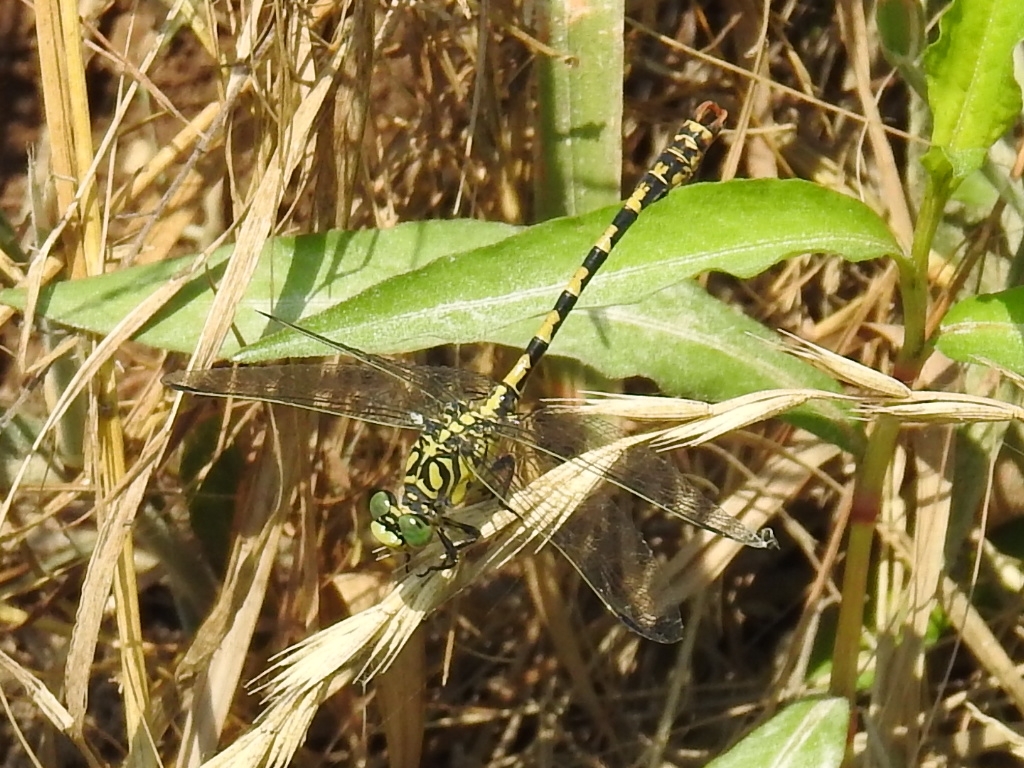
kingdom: Animalia
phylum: Arthropoda
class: Insecta
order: Odonata
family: Gomphidae
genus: Onychogomphus
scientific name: Onychogomphus forcipatus
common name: Small pincertail
